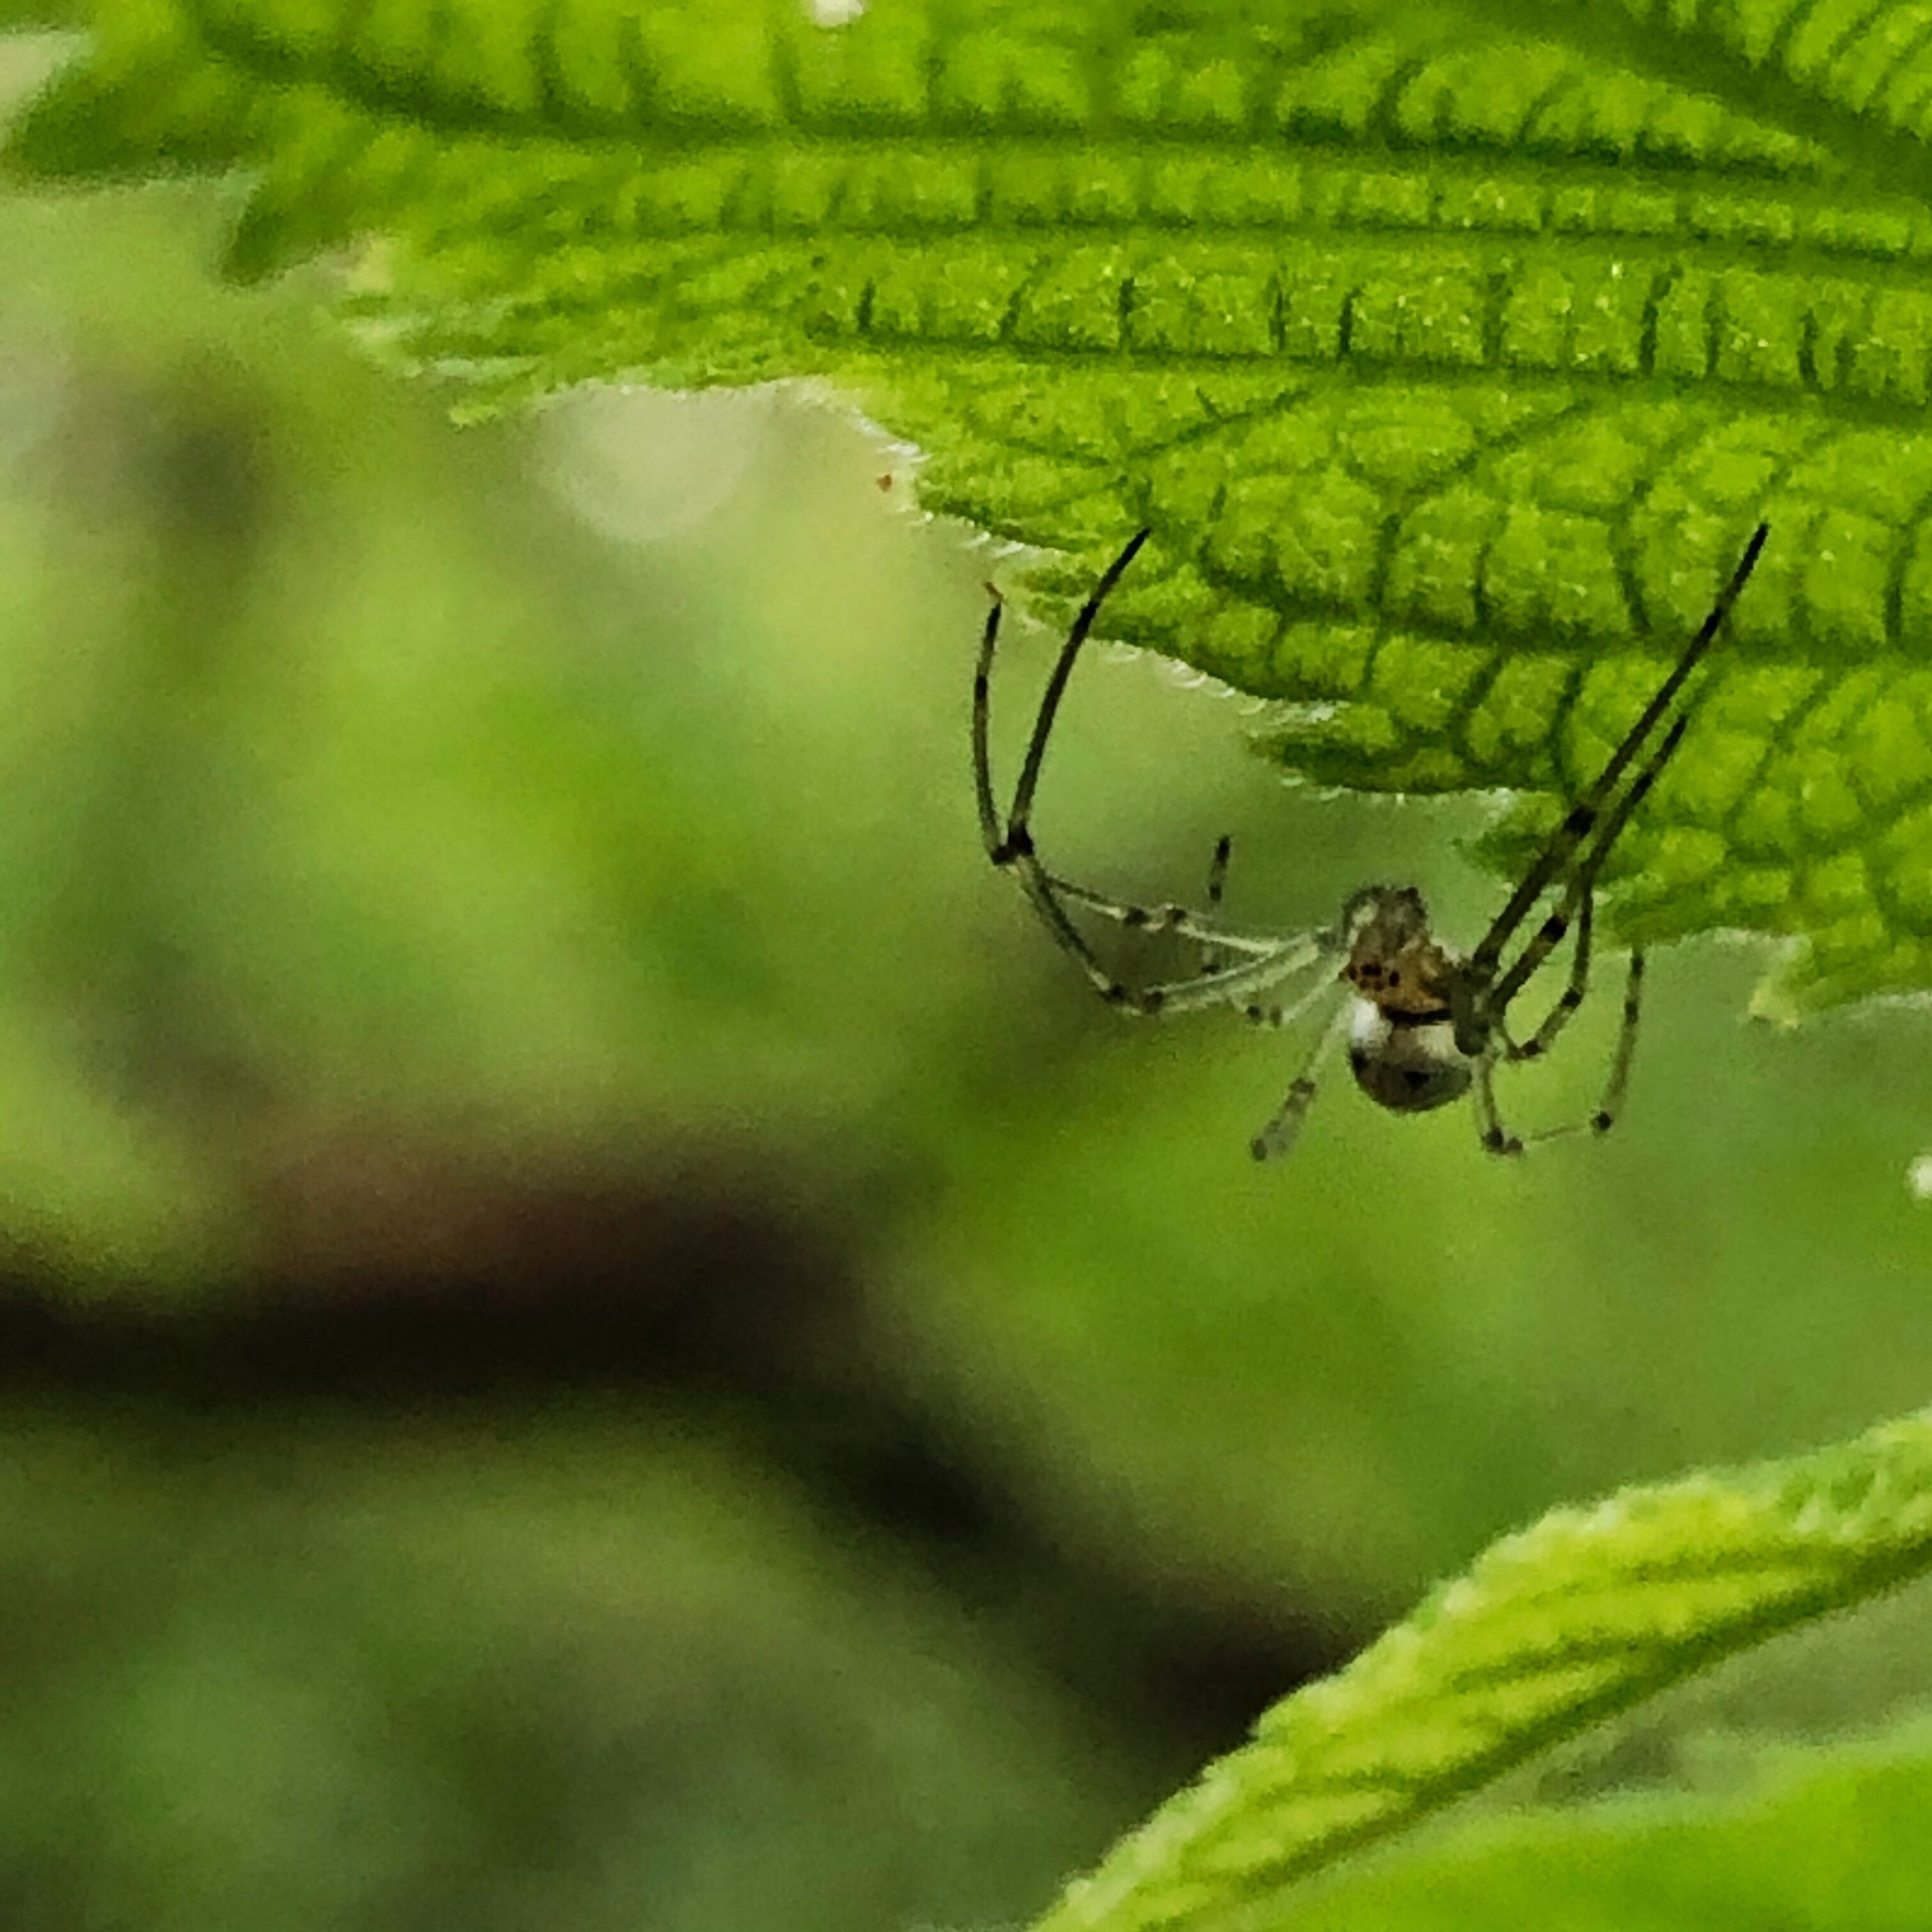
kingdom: Animalia
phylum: Arthropoda
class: Arachnida
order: Araneae
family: Tetragnathidae
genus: Leucauge
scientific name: Leucauge venusta
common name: Longjawed orb weavers
